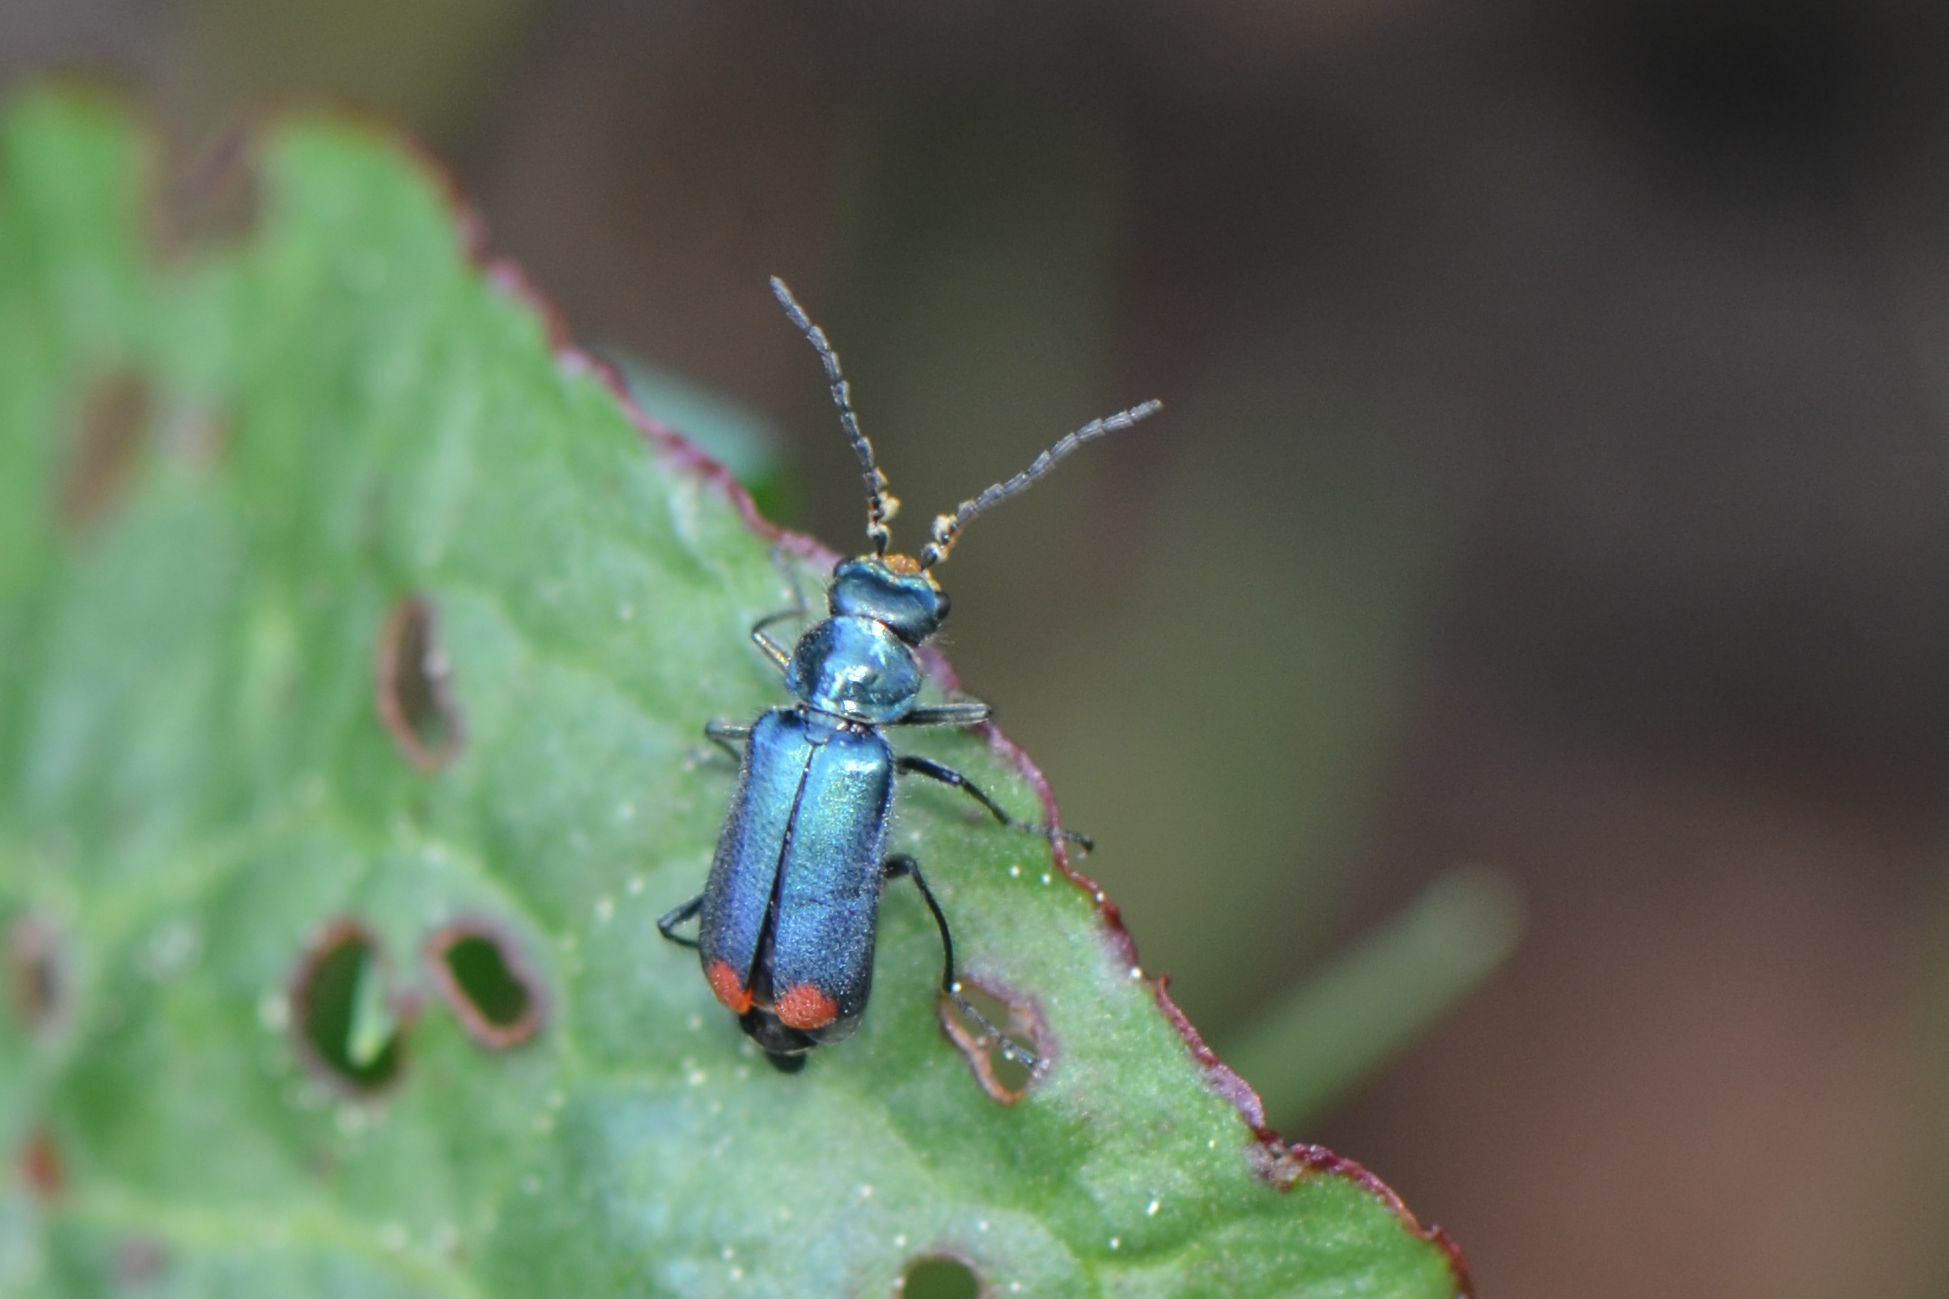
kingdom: Animalia
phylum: Arthropoda
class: Insecta
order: Coleoptera
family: Melyridae
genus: Malachius
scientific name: Malachius bipustulatus
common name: Malachite beetle
